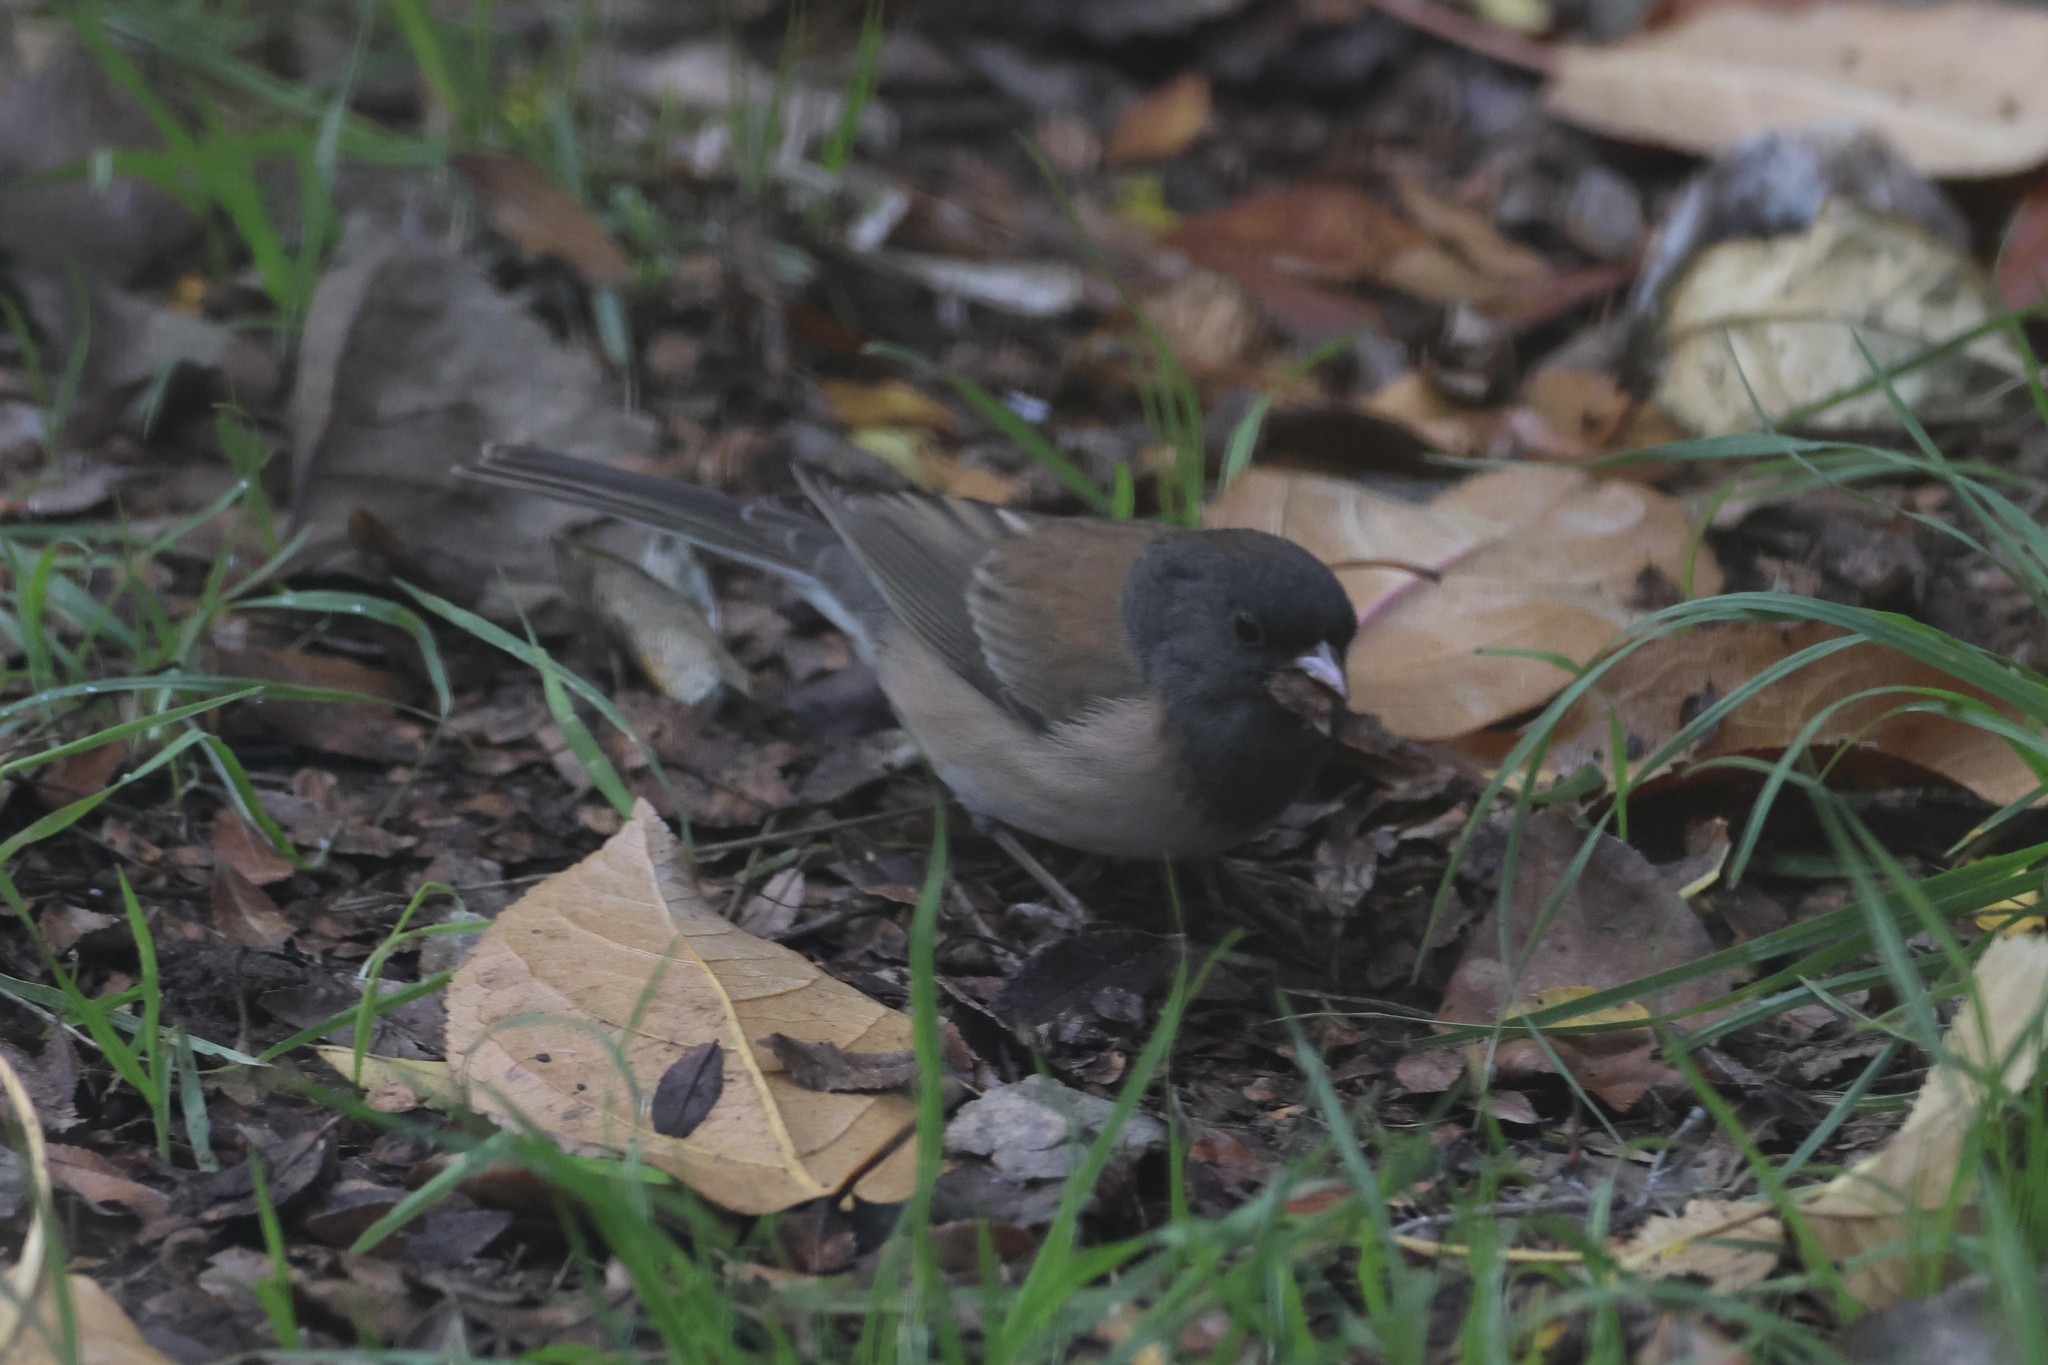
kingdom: Animalia
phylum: Chordata
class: Aves
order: Passeriformes
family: Passerellidae
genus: Junco
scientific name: Junco hyemalis
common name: Dark-eyed junco
